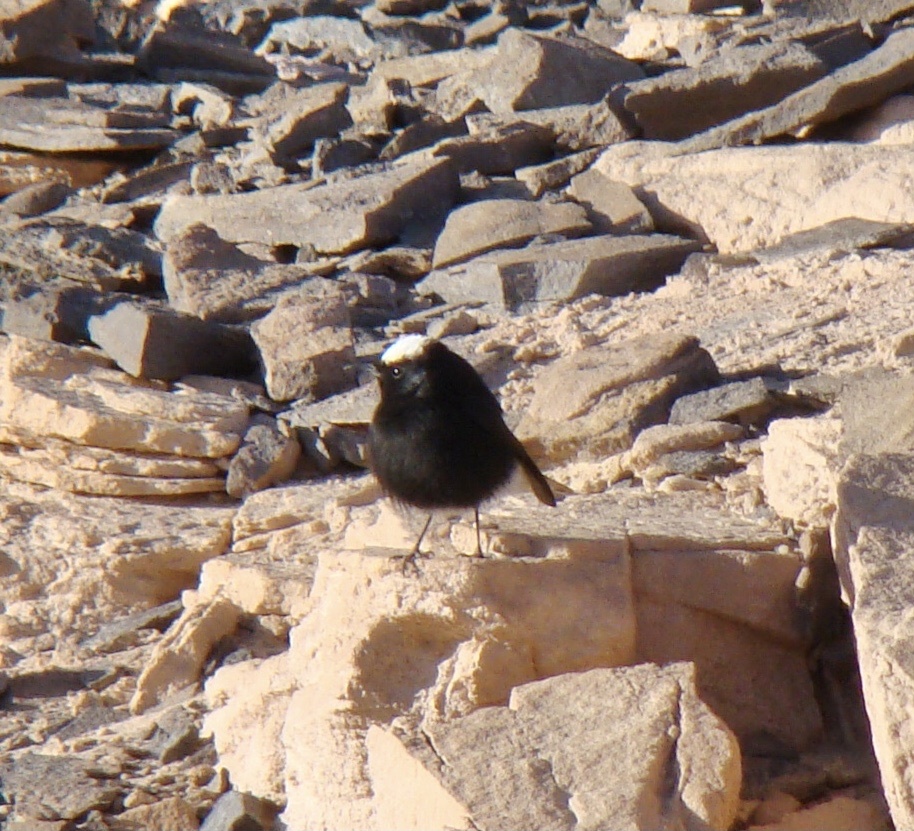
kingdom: Animalia
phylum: Chordata
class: Aves
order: Passeriformes
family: Muscicapidae
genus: Oenanthe
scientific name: Oenanthe leucopyga
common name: White-crowned wheatear
